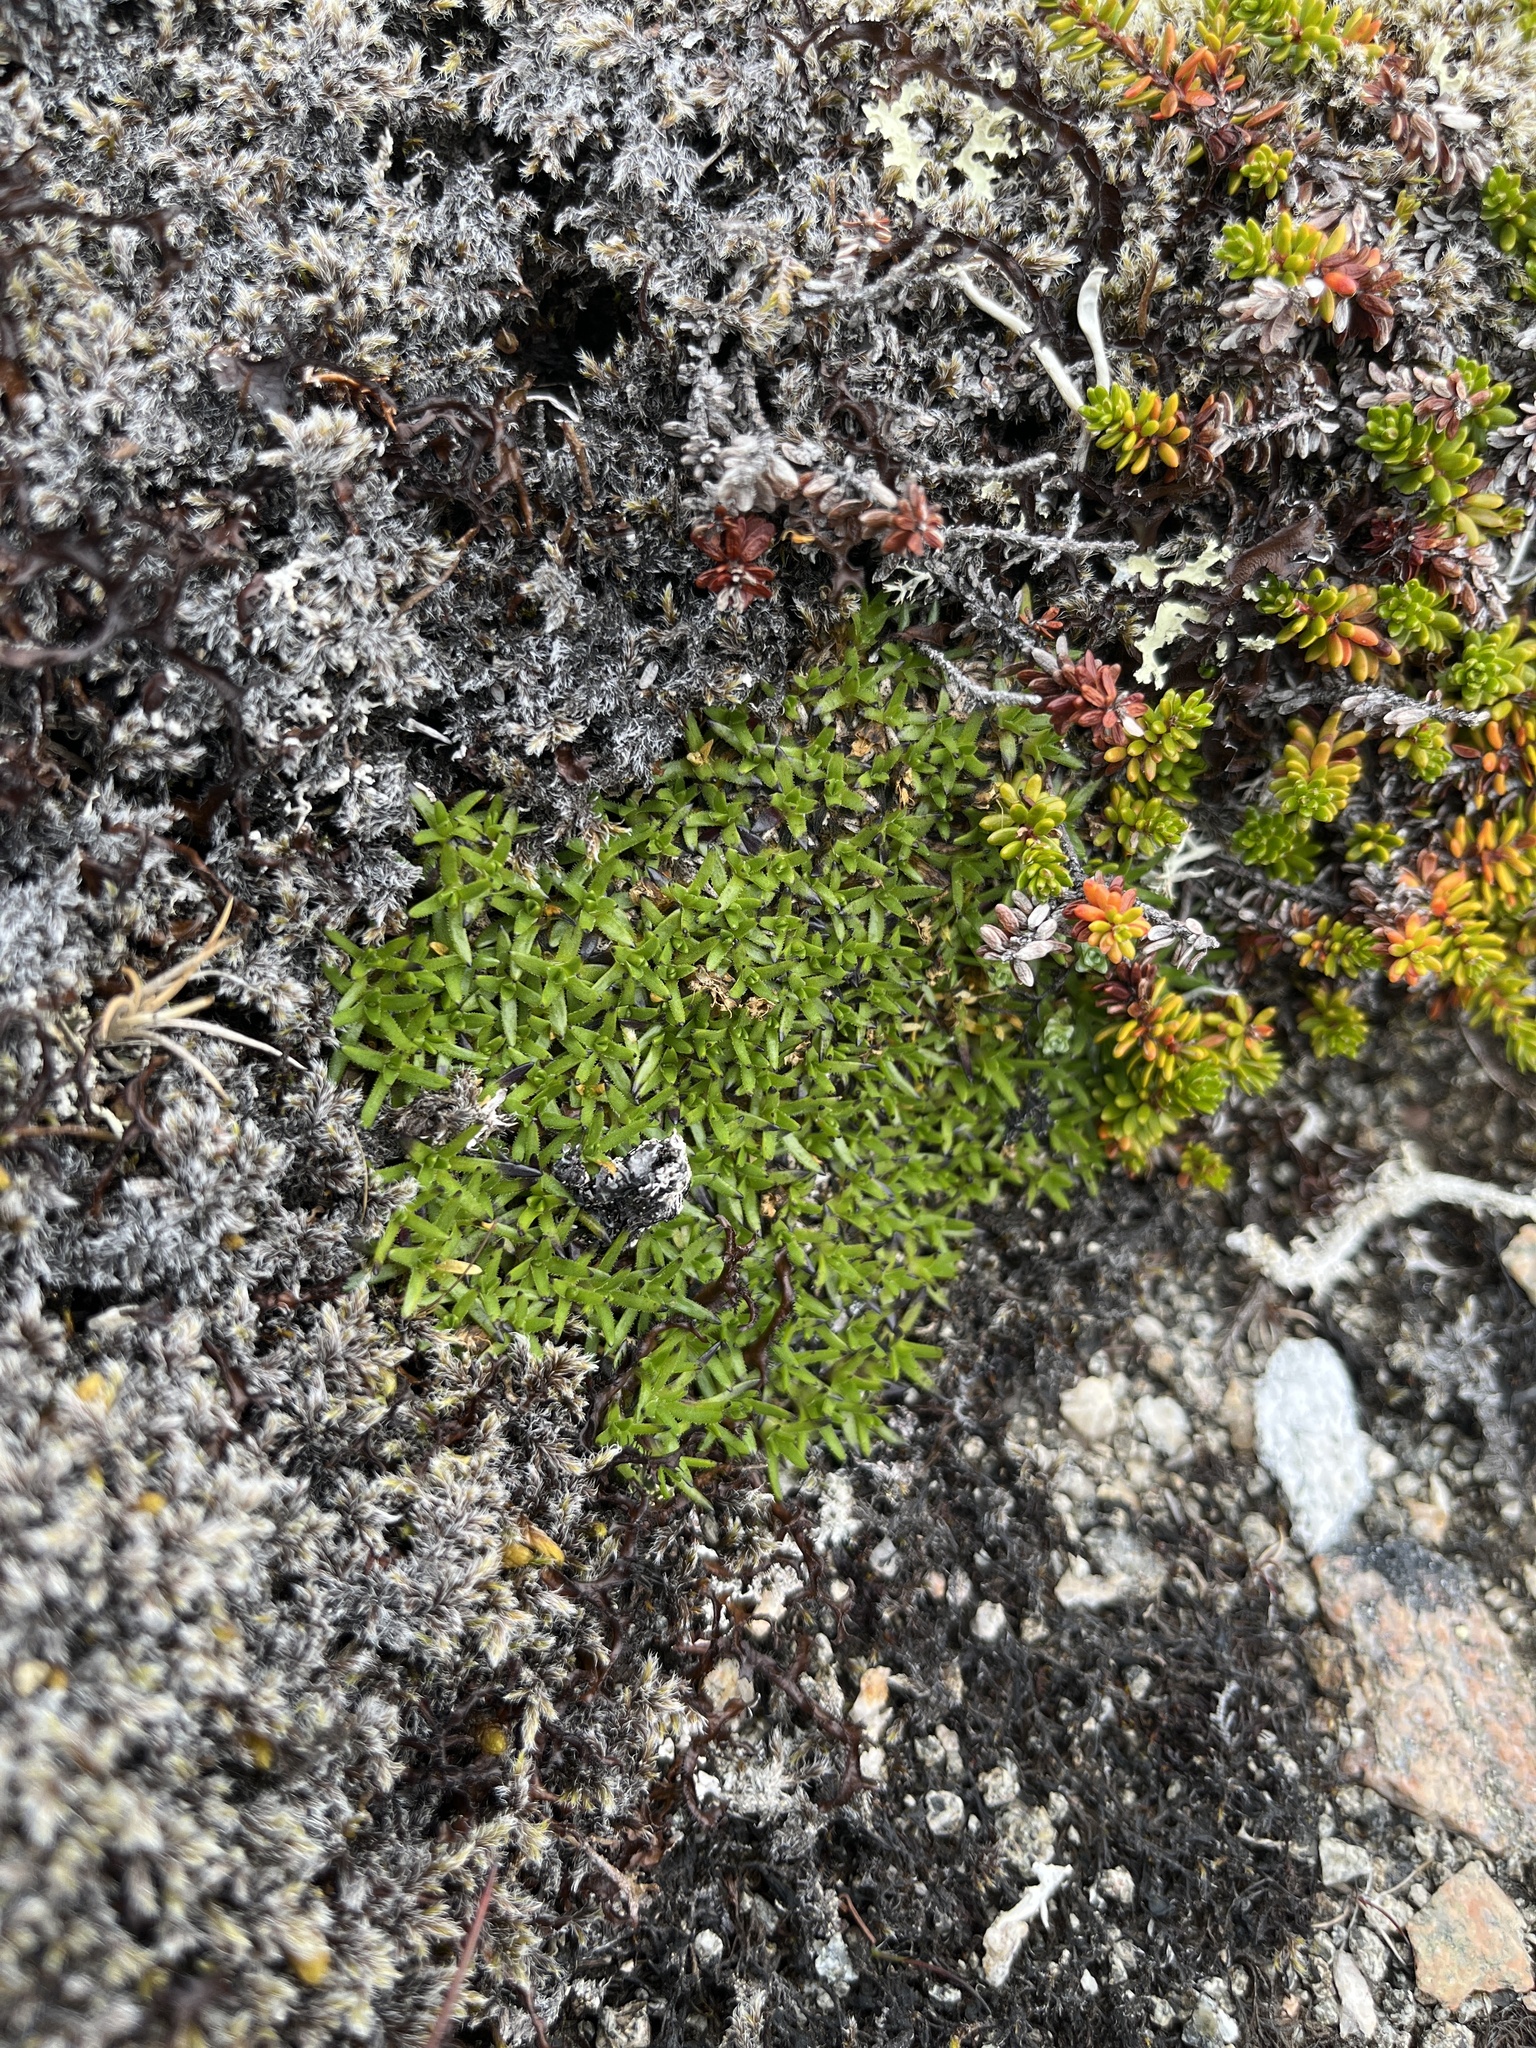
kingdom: Plantae
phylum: Tracheophyta
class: Magnoliopsida
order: Caryophyllales
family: Caryophyllaceae
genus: Silene
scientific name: Silene acaulis
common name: Moss campion
